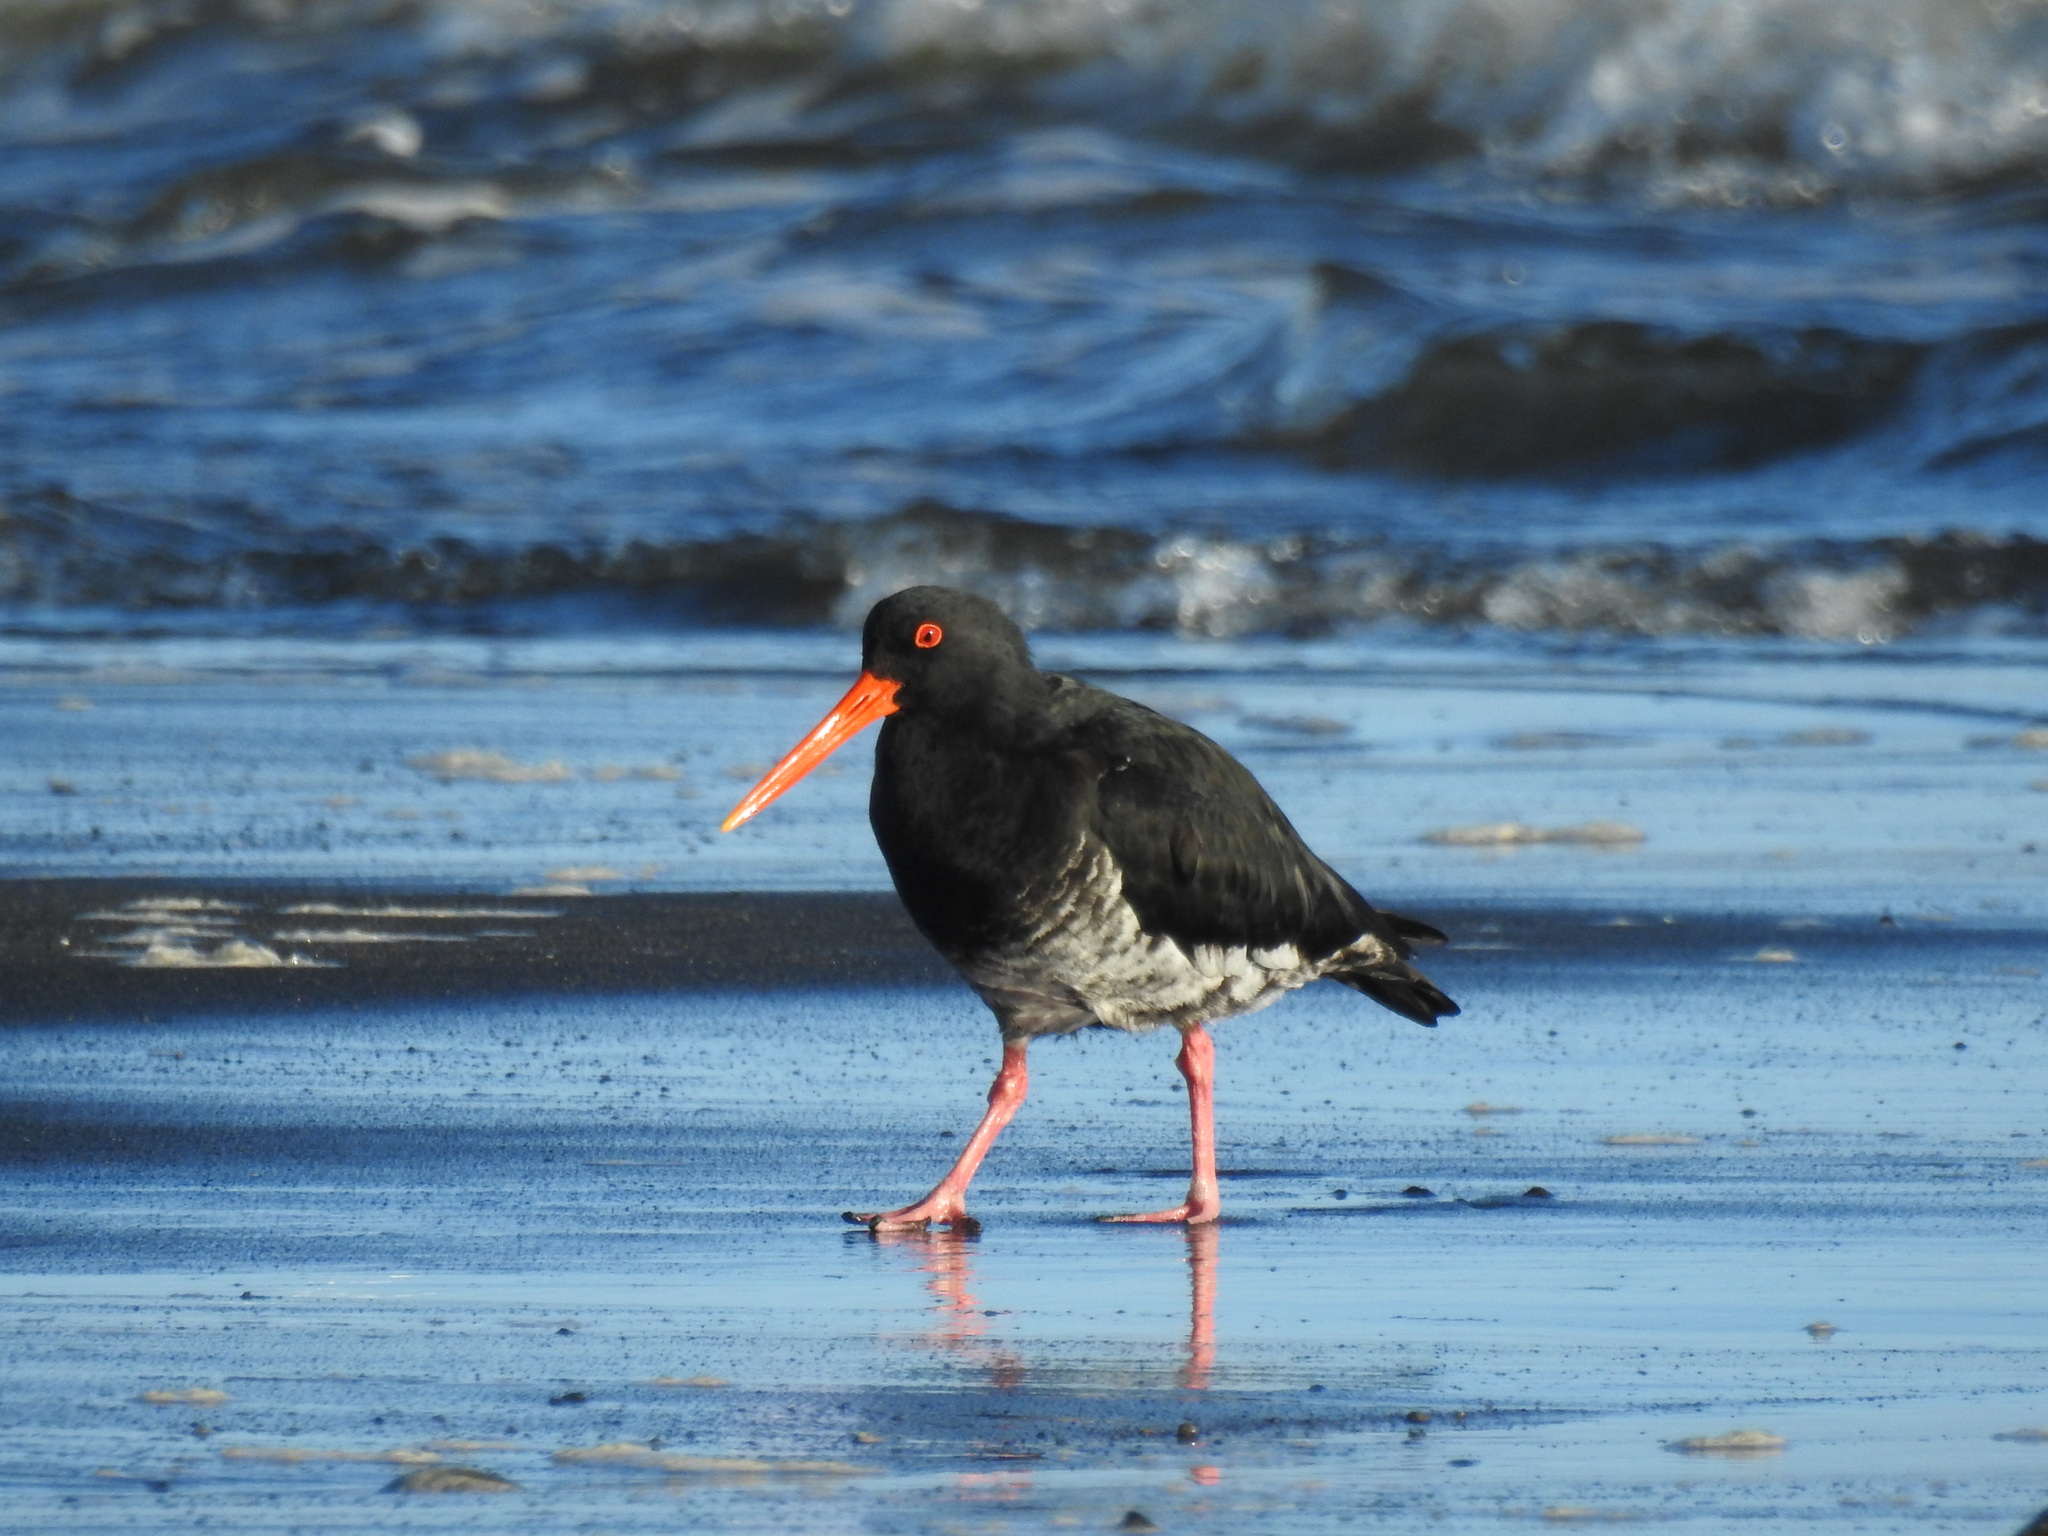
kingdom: Animalia
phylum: Chordata
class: Aves
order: Charadriiformes
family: Haematopodidae
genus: Haematopus
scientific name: Haematopus unicolor
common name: Variable oystercatcher
